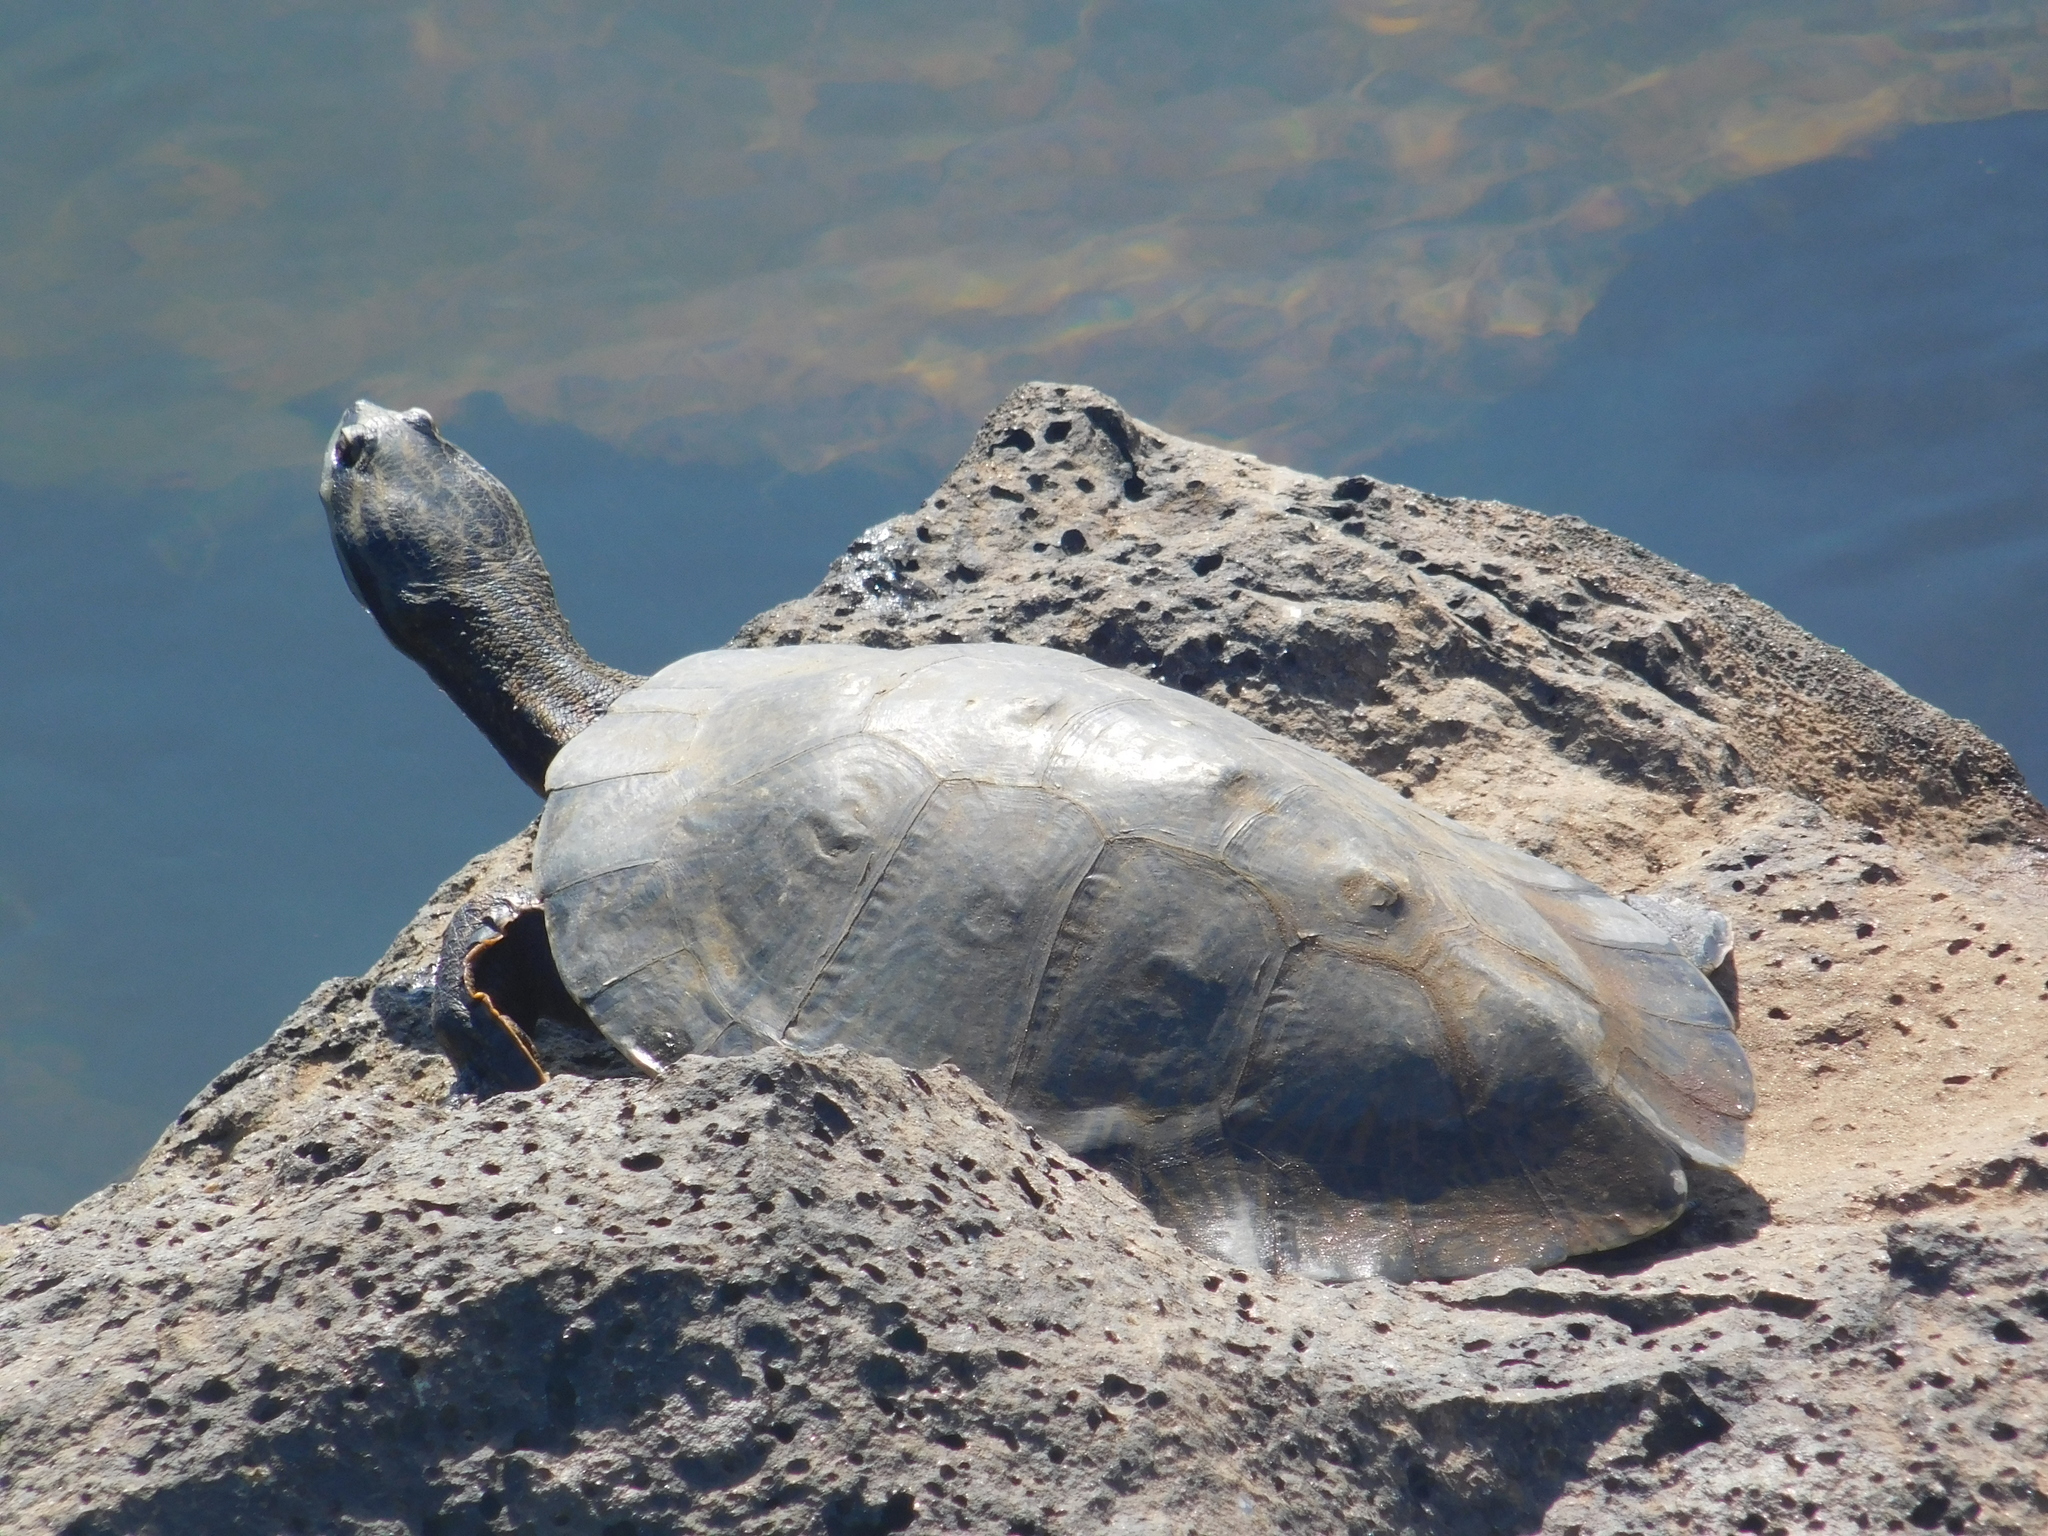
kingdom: Animalia
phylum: Chordata
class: Testudines
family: Chelidae
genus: Phrynops
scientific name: Phrynops williamsi
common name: Williams side-necked turtle
